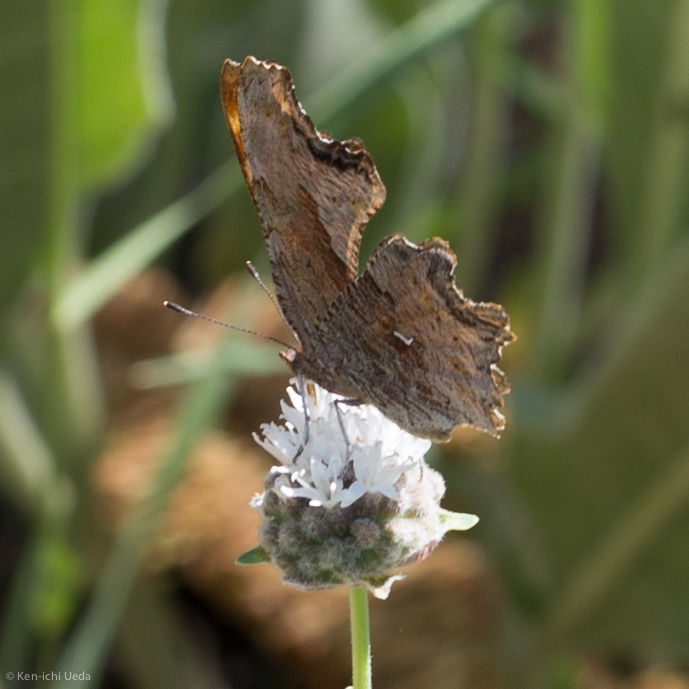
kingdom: Animalia
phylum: Arthropoda
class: Insecta
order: Lepidoptera
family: Nymphalidae
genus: Polygonia
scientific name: Polygonia gracilis
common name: Hoary comma
